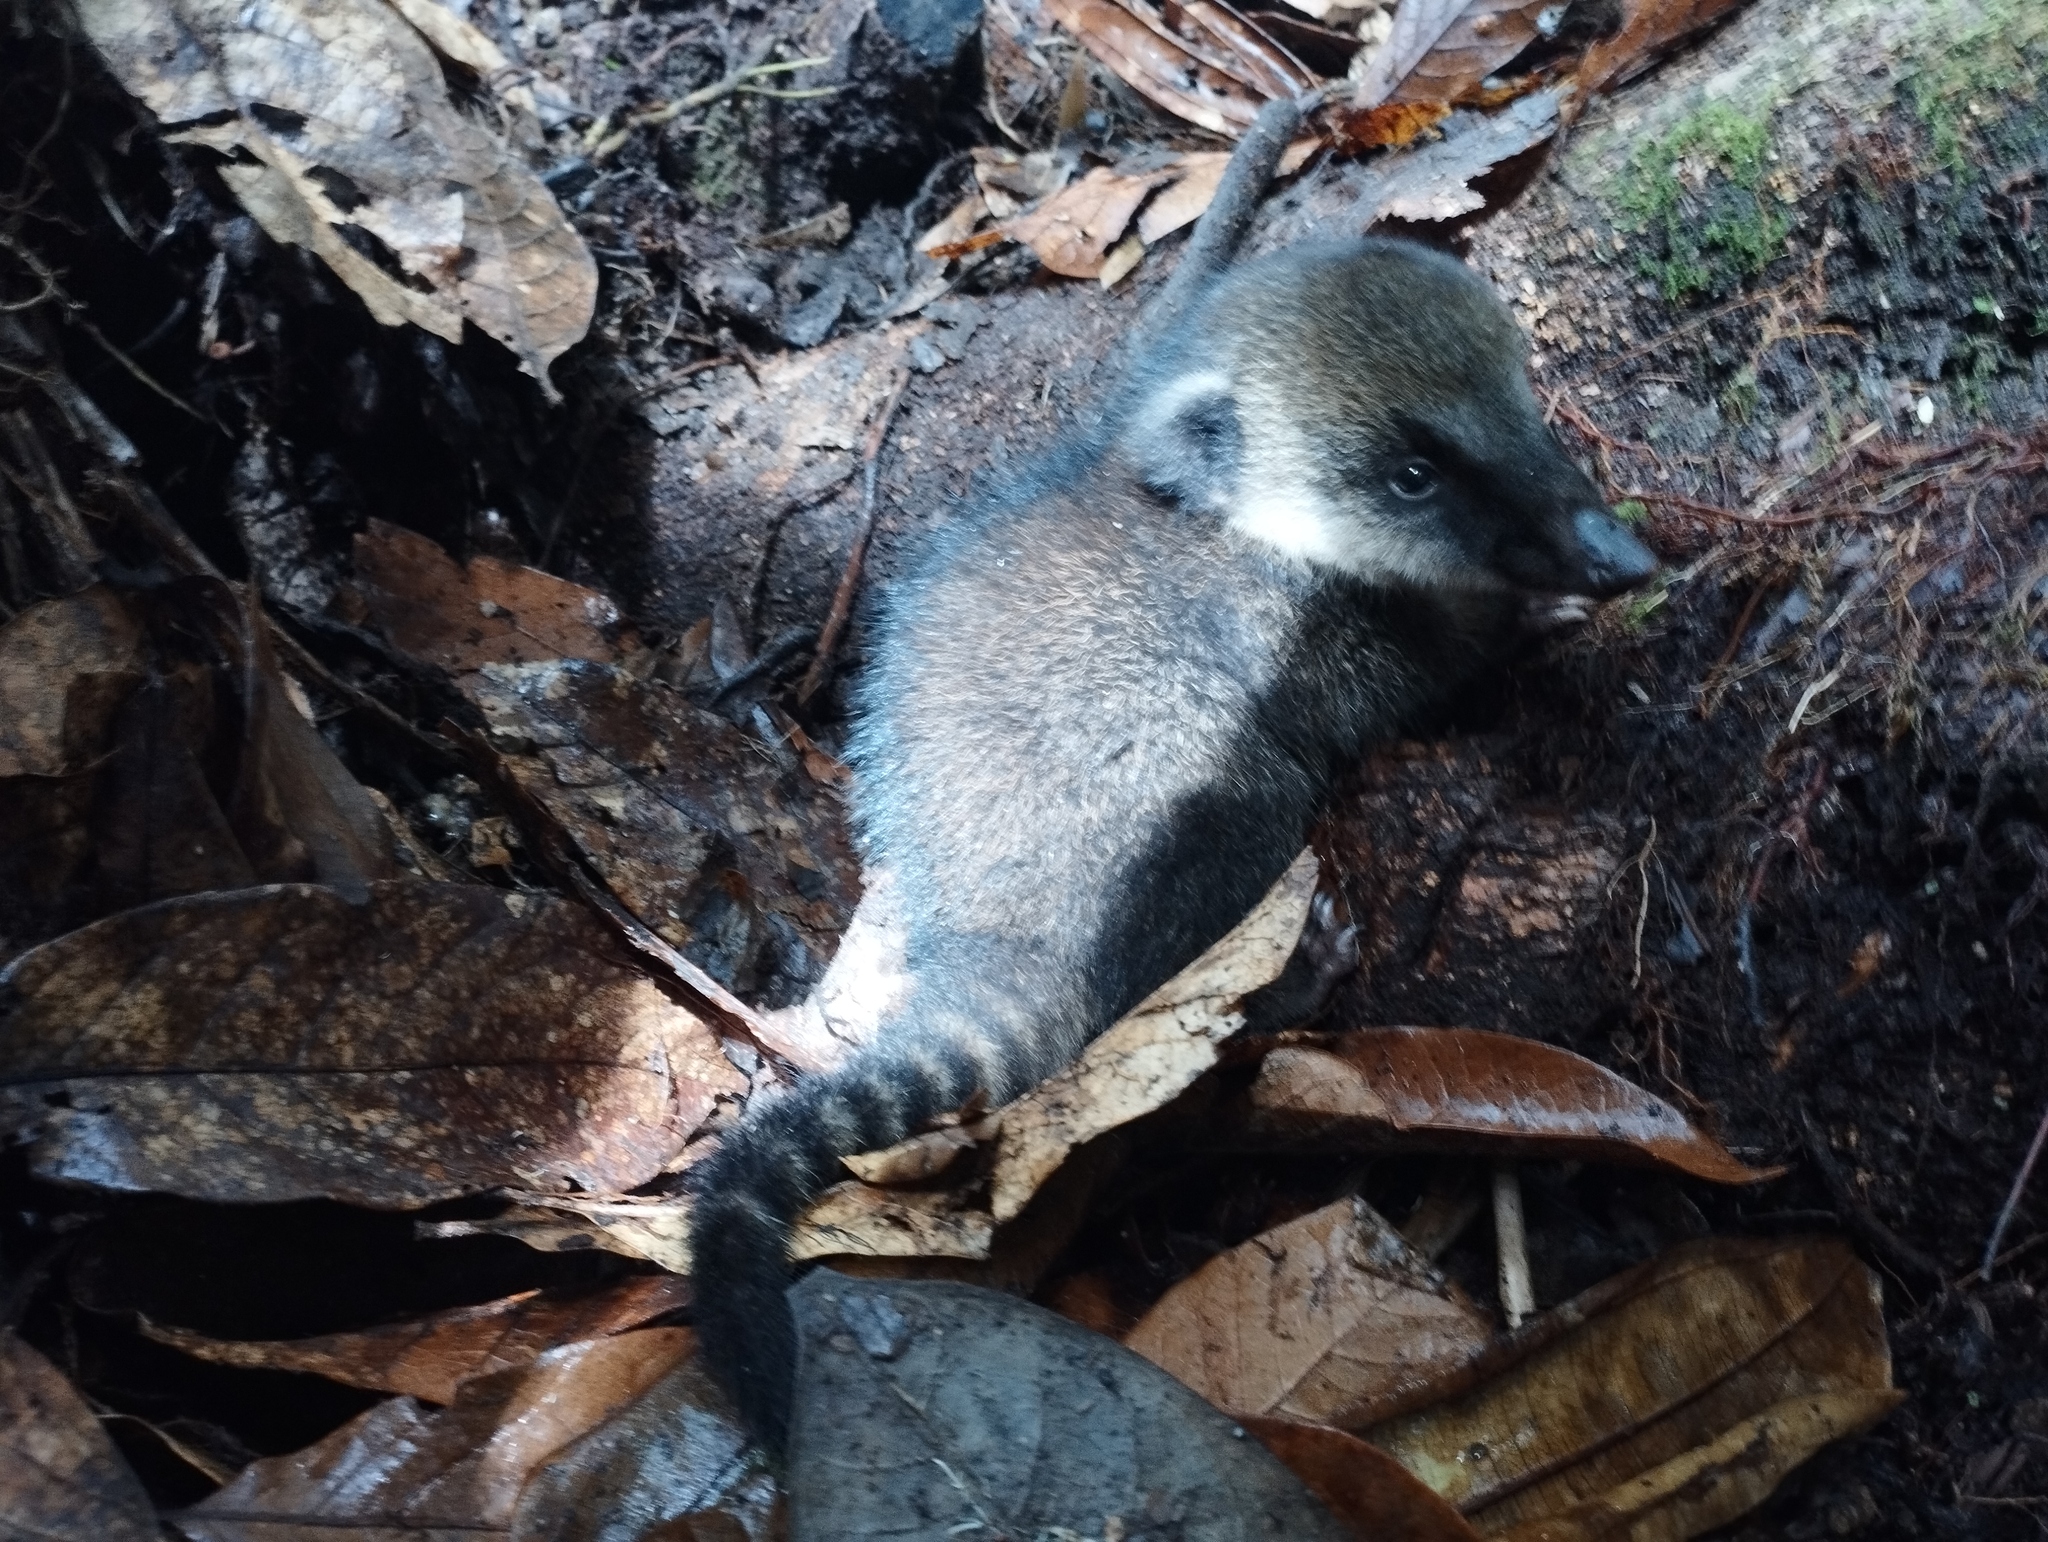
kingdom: Animalia
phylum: Chordata
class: Mammalia
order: Carnivora
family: Procyonidae
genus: Nasua
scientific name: Nasua olivacea
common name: Mountain coati
